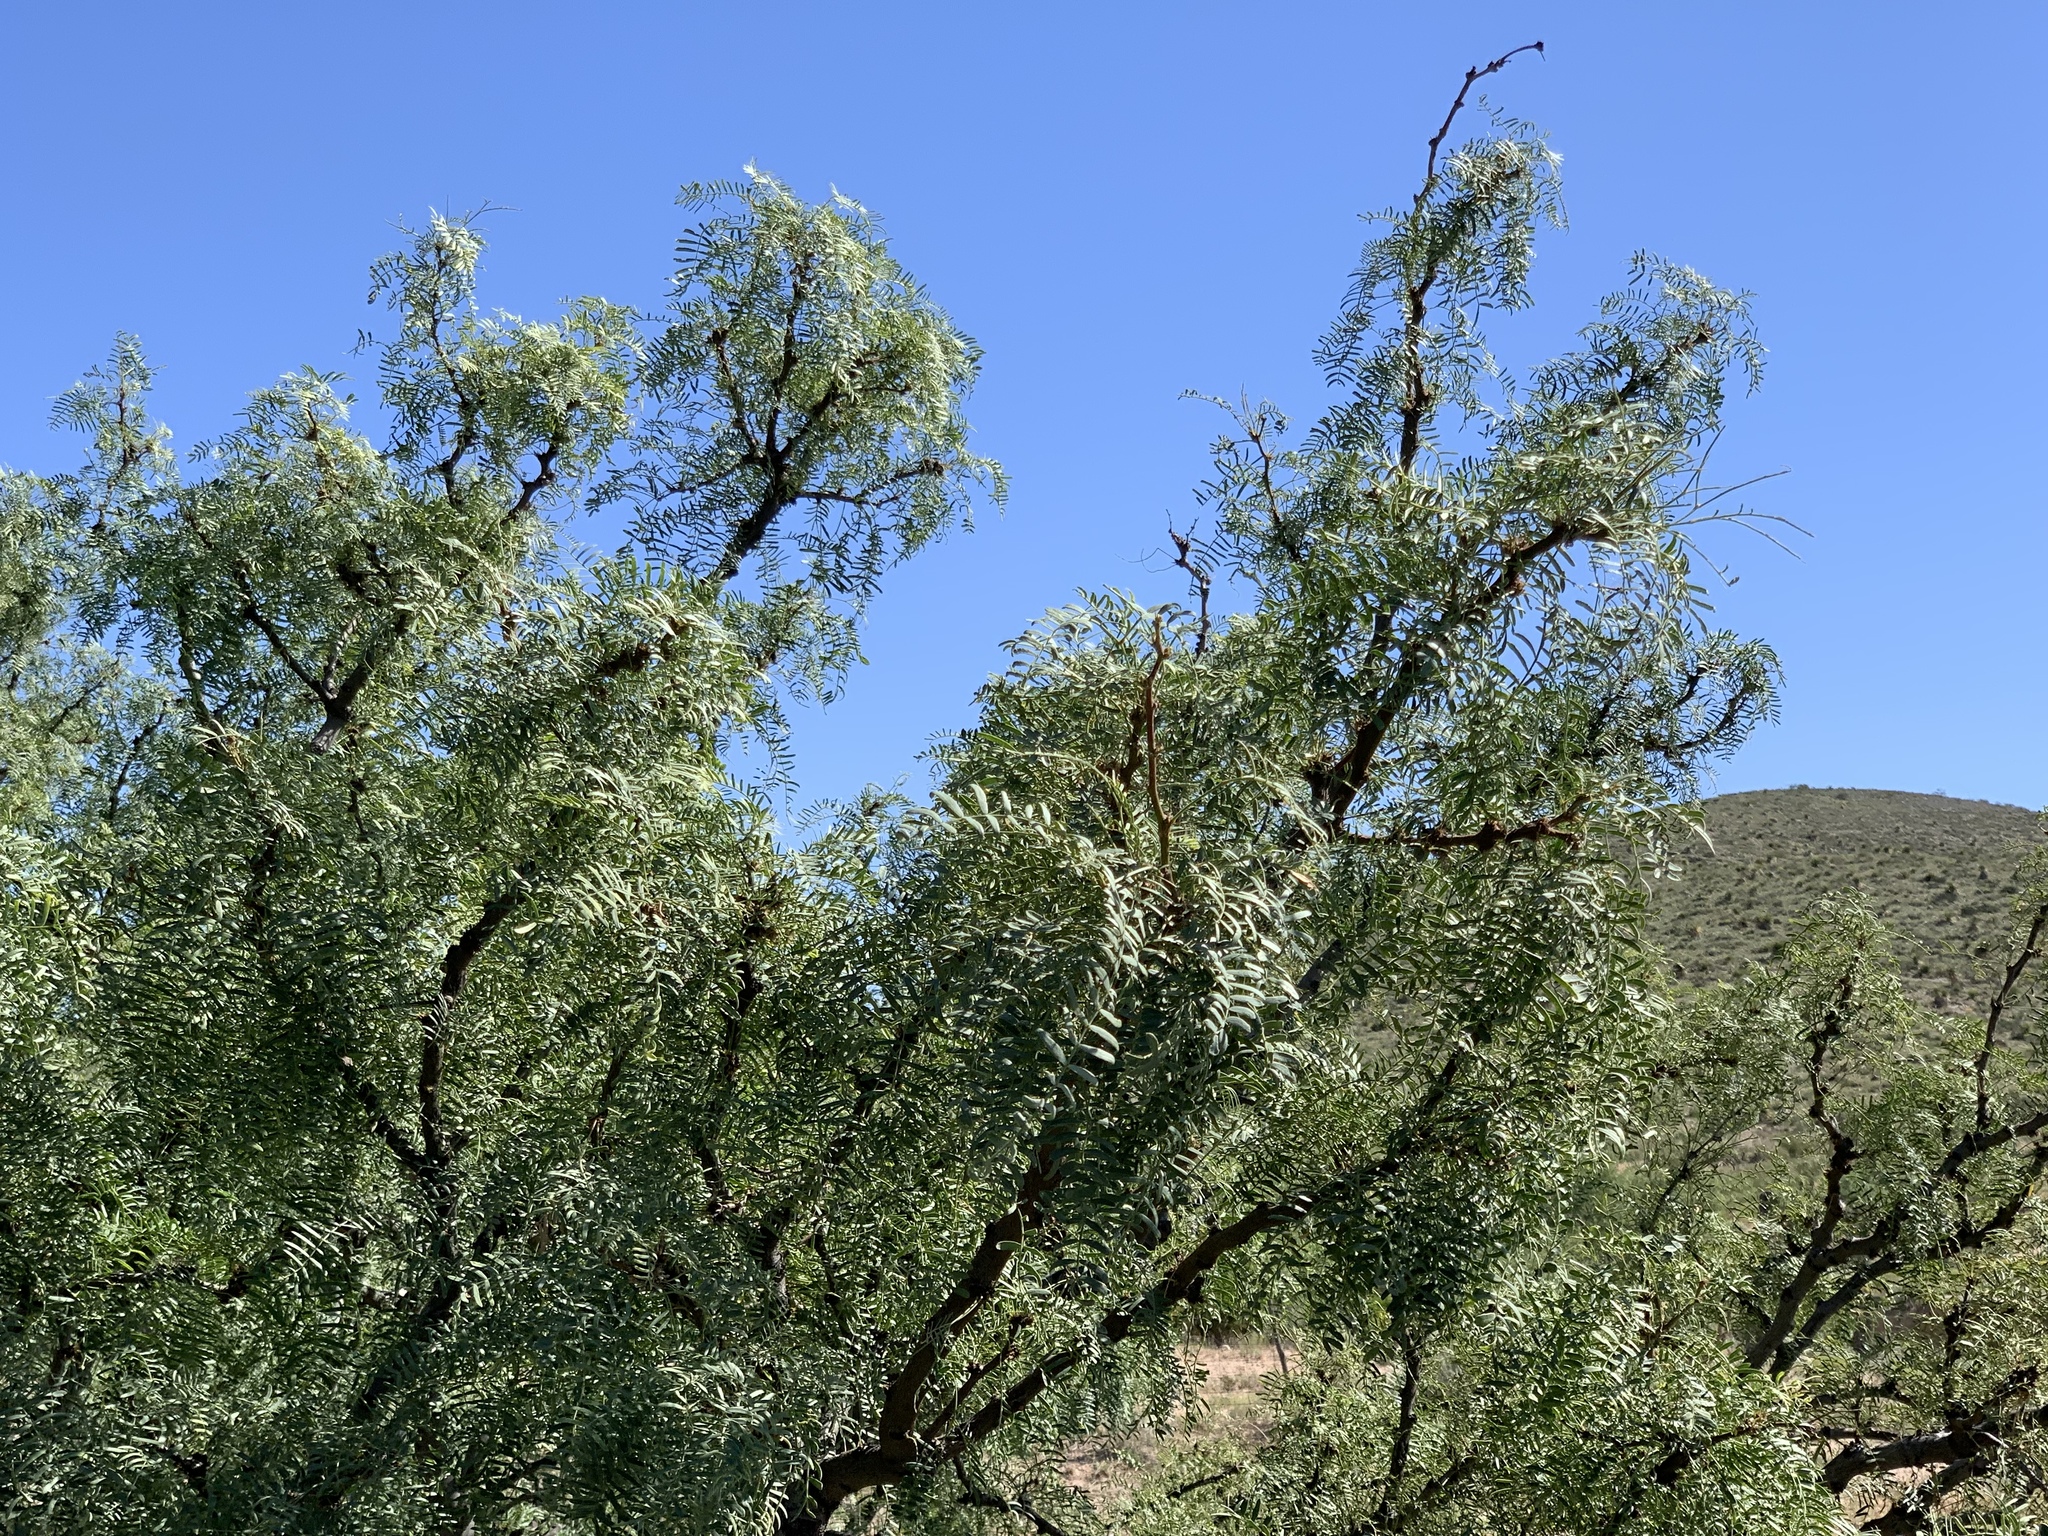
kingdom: Plantae
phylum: Tracheophyta
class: Magnoliopsida
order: Fabales
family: Fabaceae
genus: Prosopis
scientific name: Prosopis glandulosa
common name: Honey mesquite
